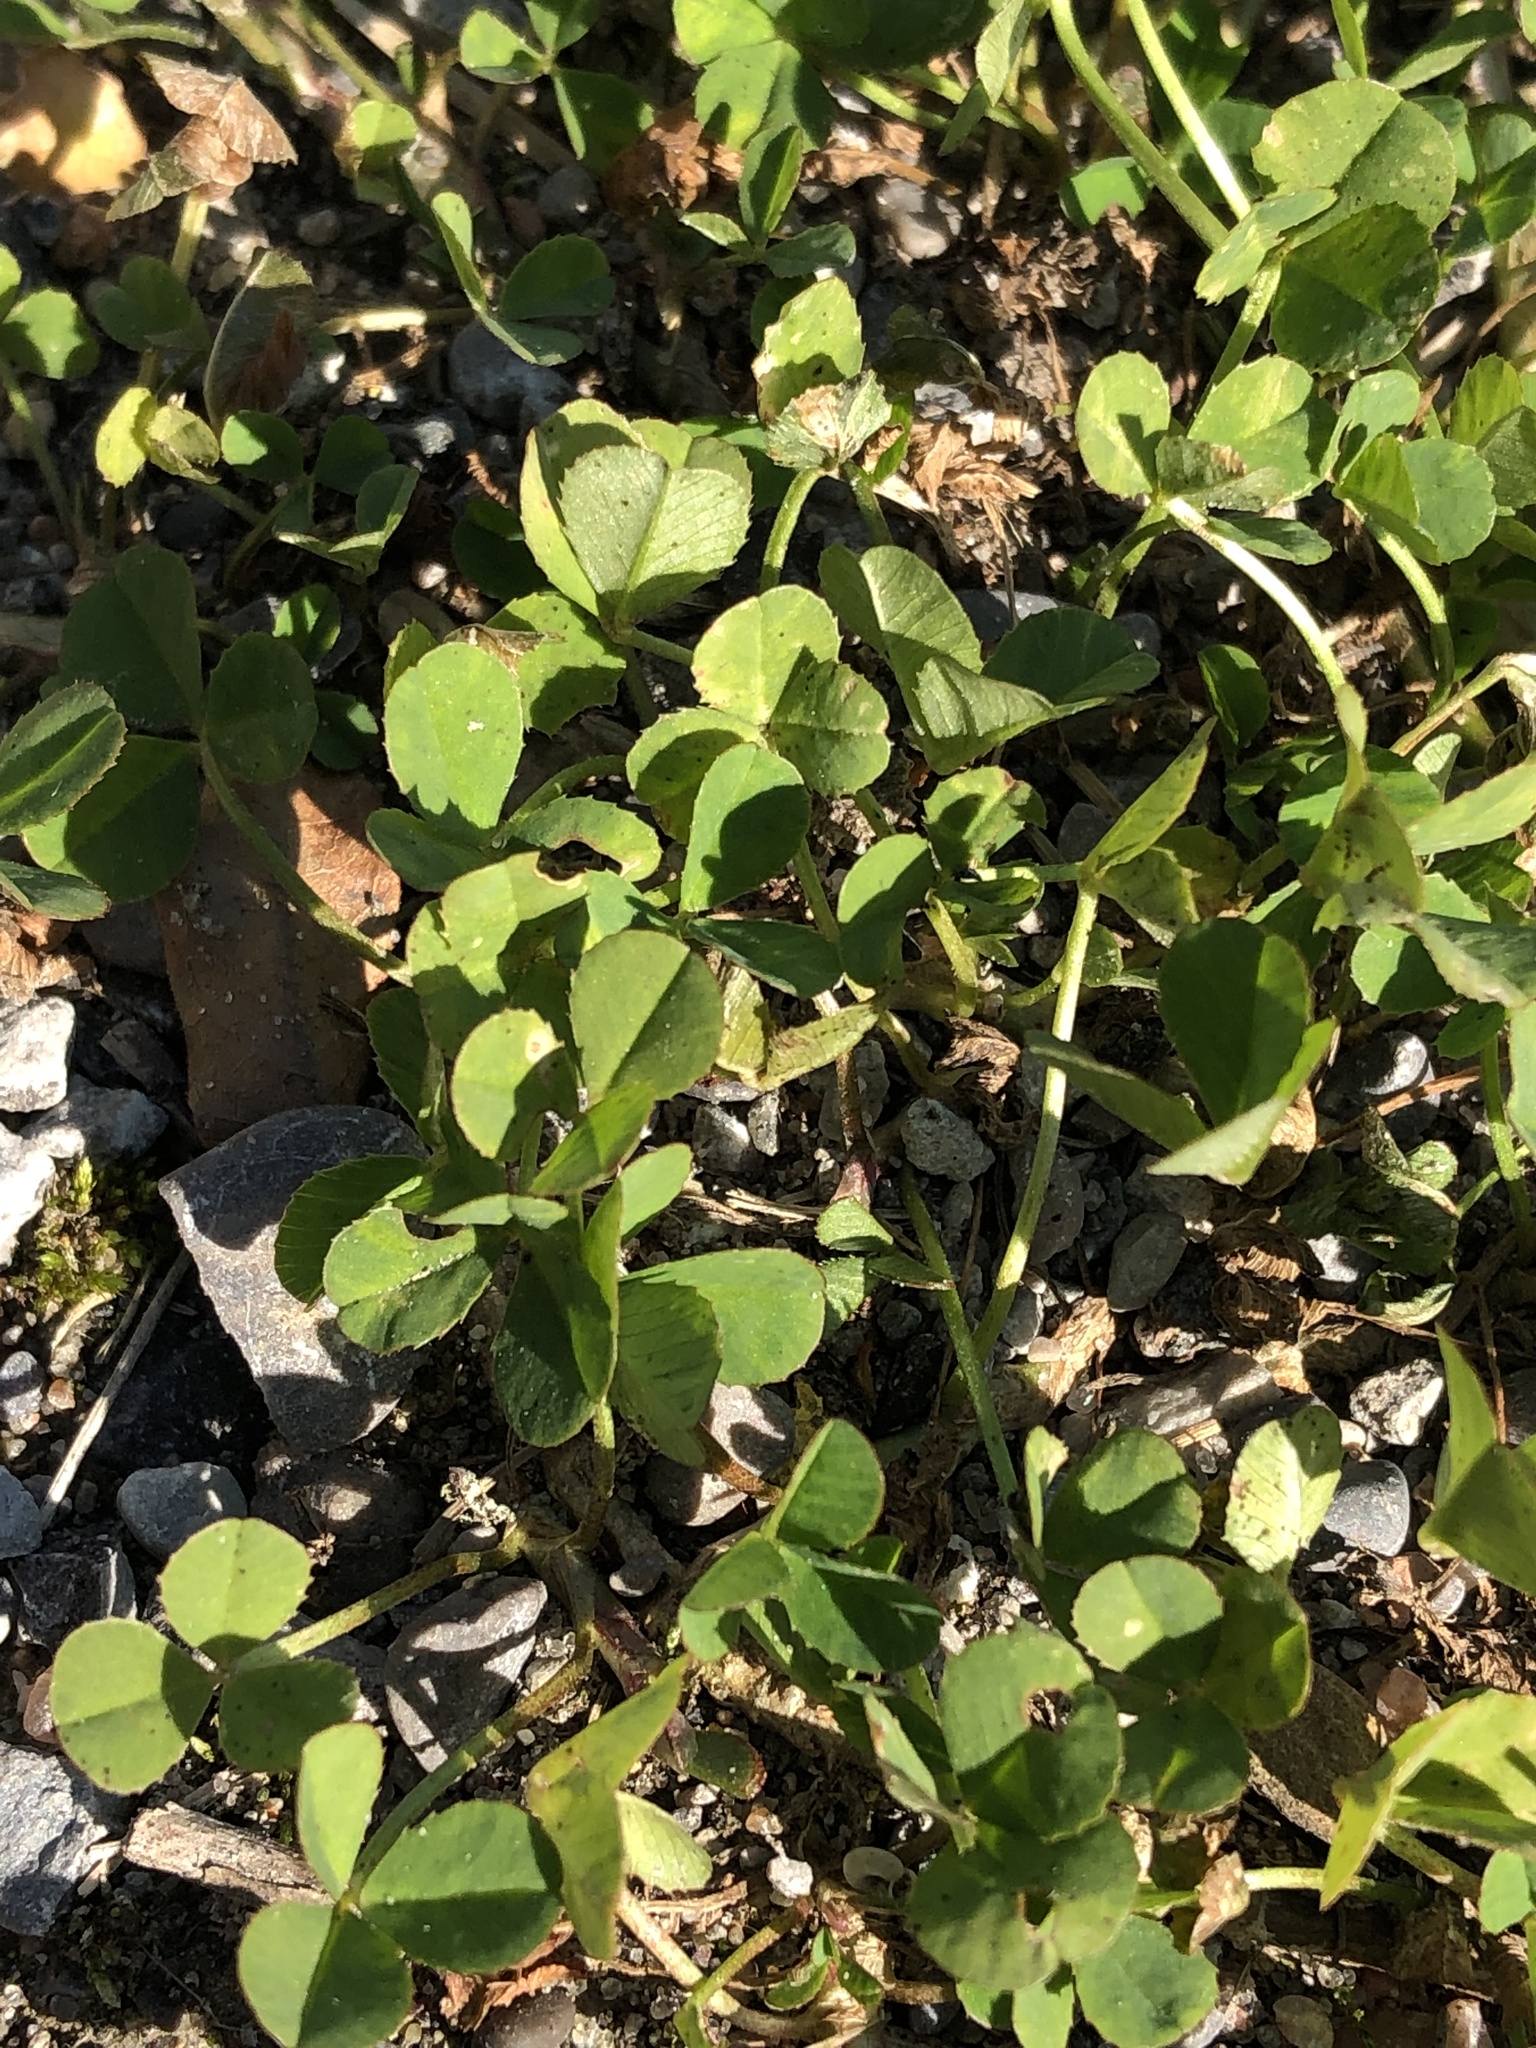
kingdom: Plantae
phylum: Tracheophyta
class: Magnoliopsida
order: Fabales
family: Fabaceae
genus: Trifolium
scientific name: Trifolium repens
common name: White clover
